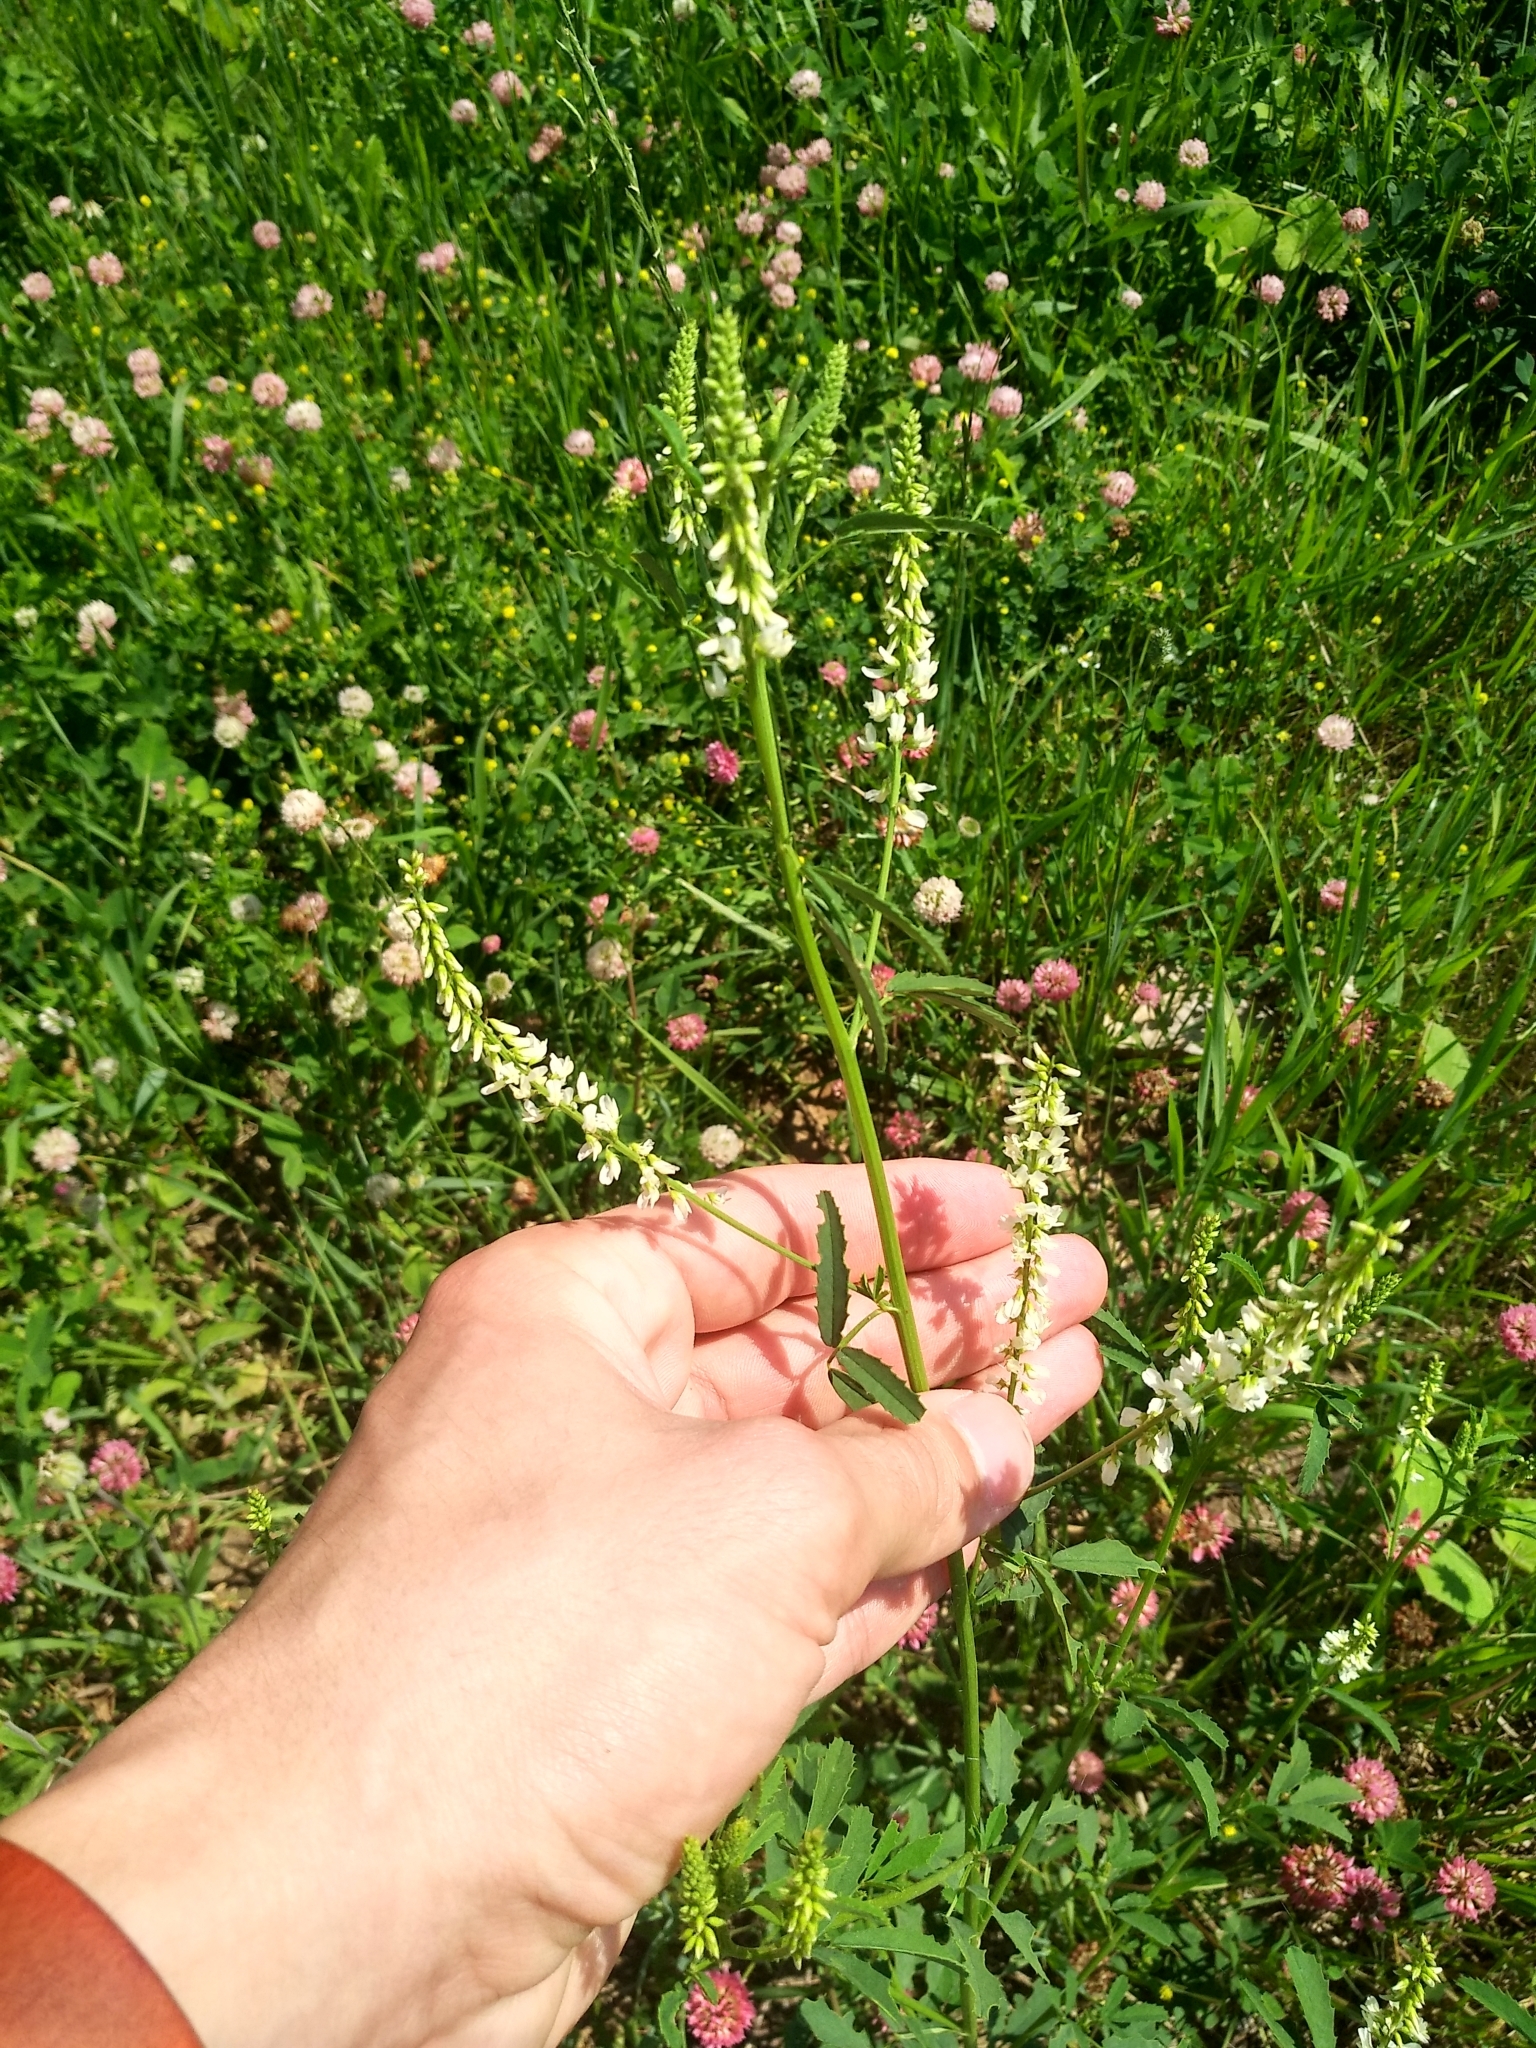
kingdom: Plantae
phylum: Tracheophyta
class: Magnoliopsida
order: Fabales
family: Fabaceae
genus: Melilotus
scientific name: Melilotus albus
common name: White melilot
